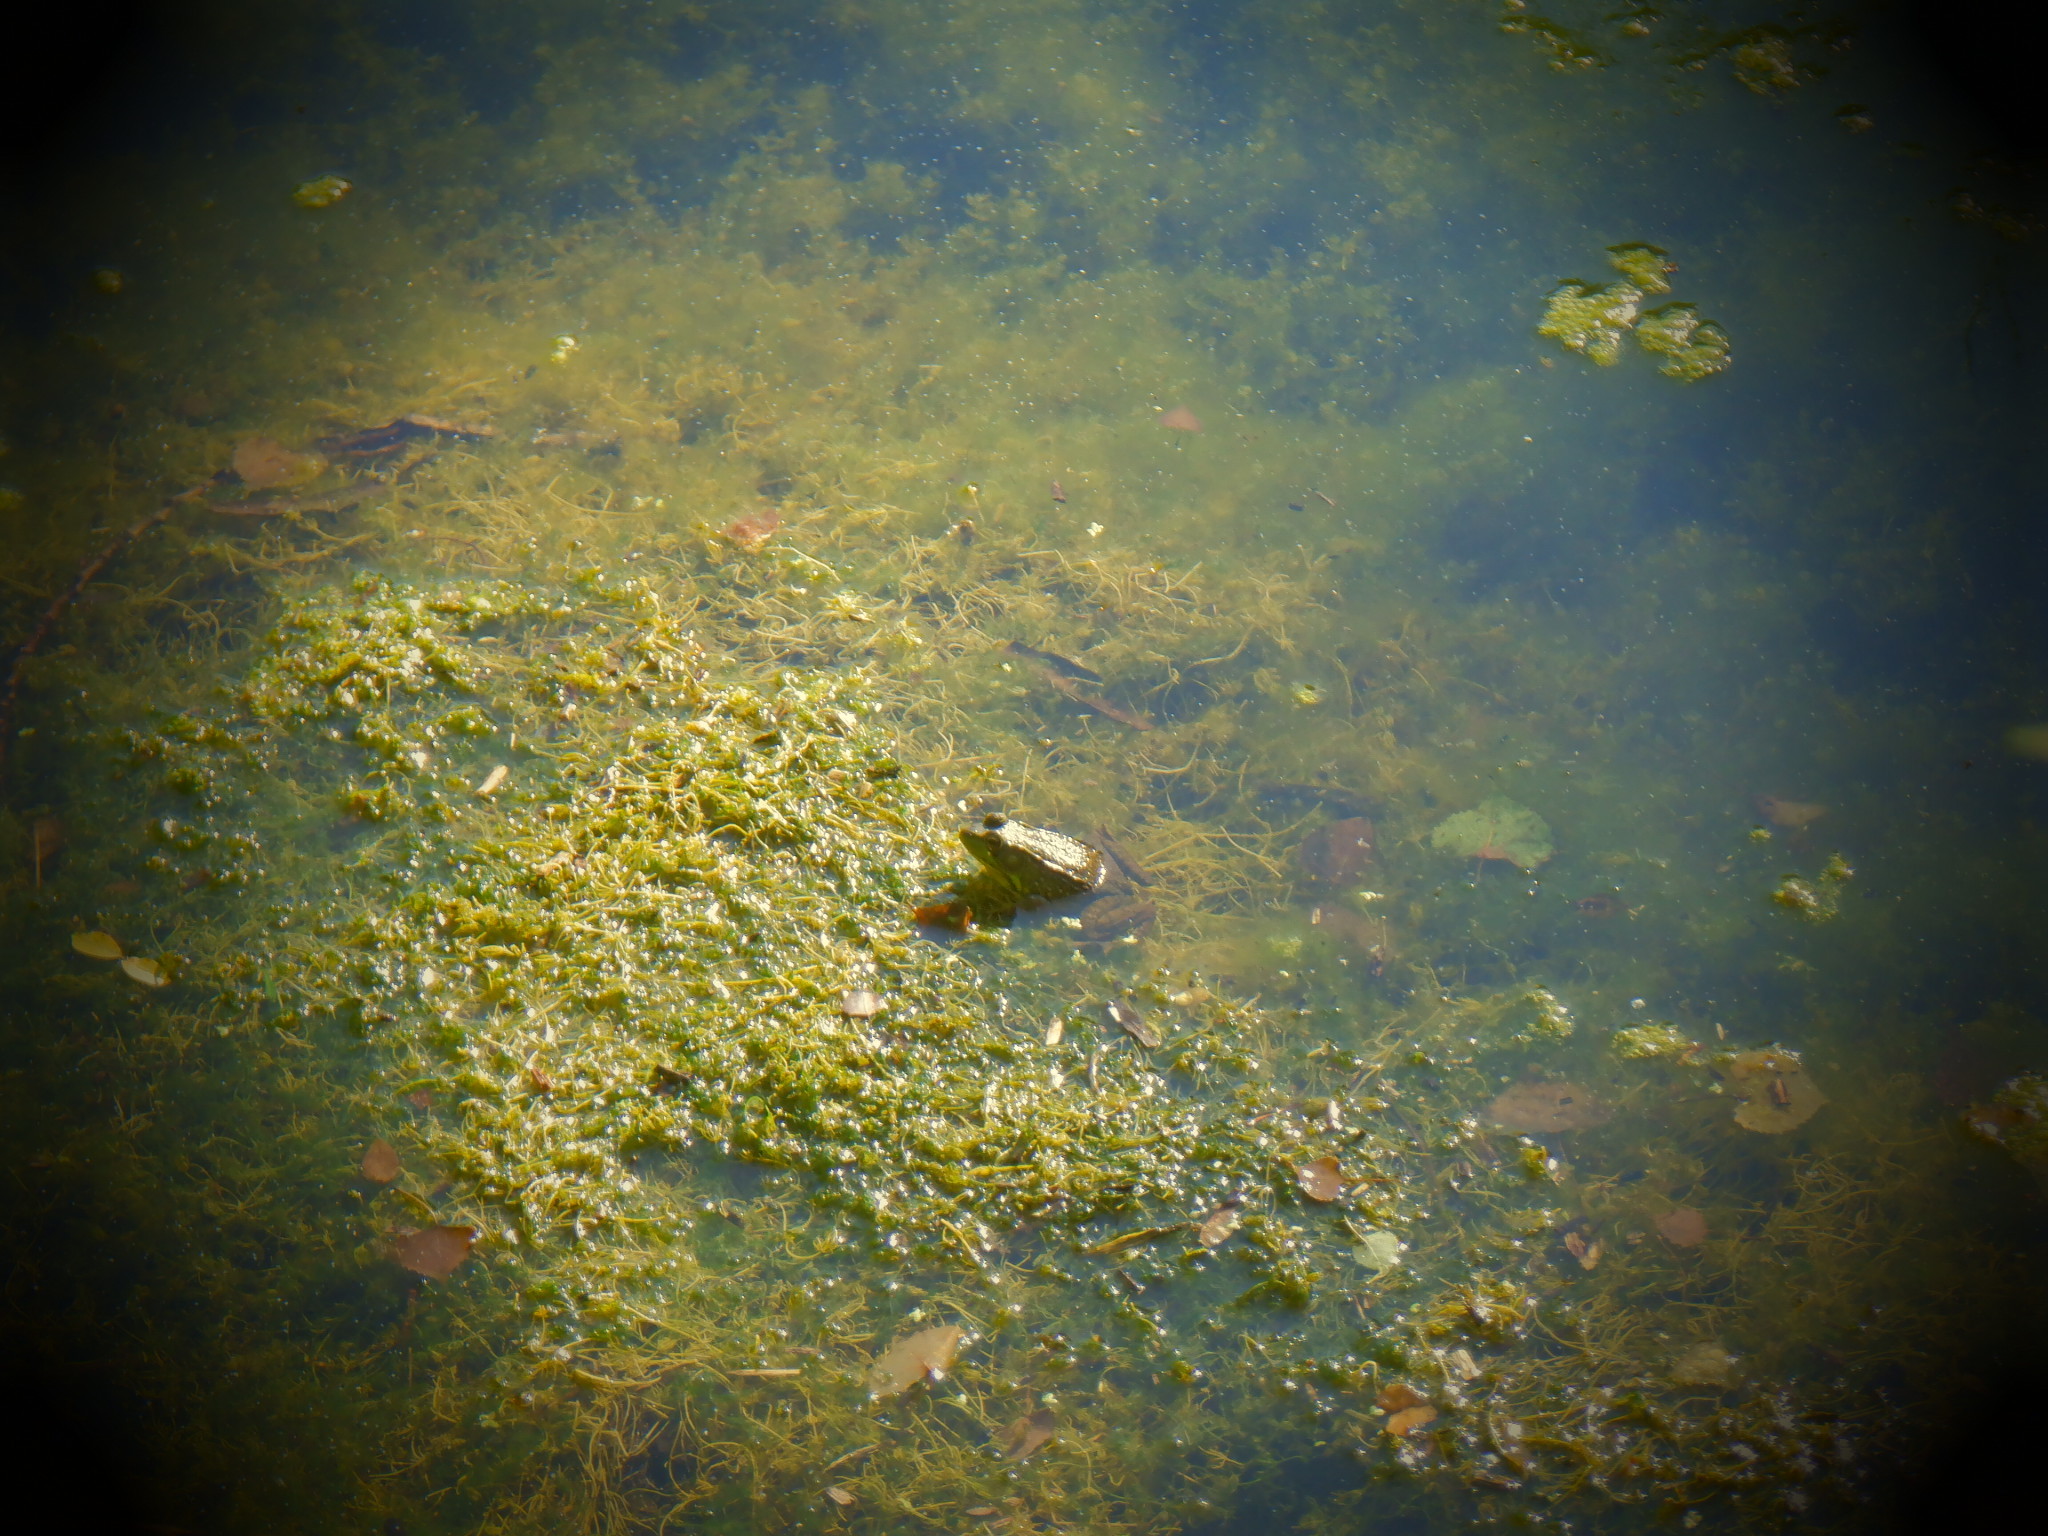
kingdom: Animalia
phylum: Chordata
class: Amphibia
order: Anura
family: Ranidae
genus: Lithobates
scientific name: Lithobates clamitans
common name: Green frog
